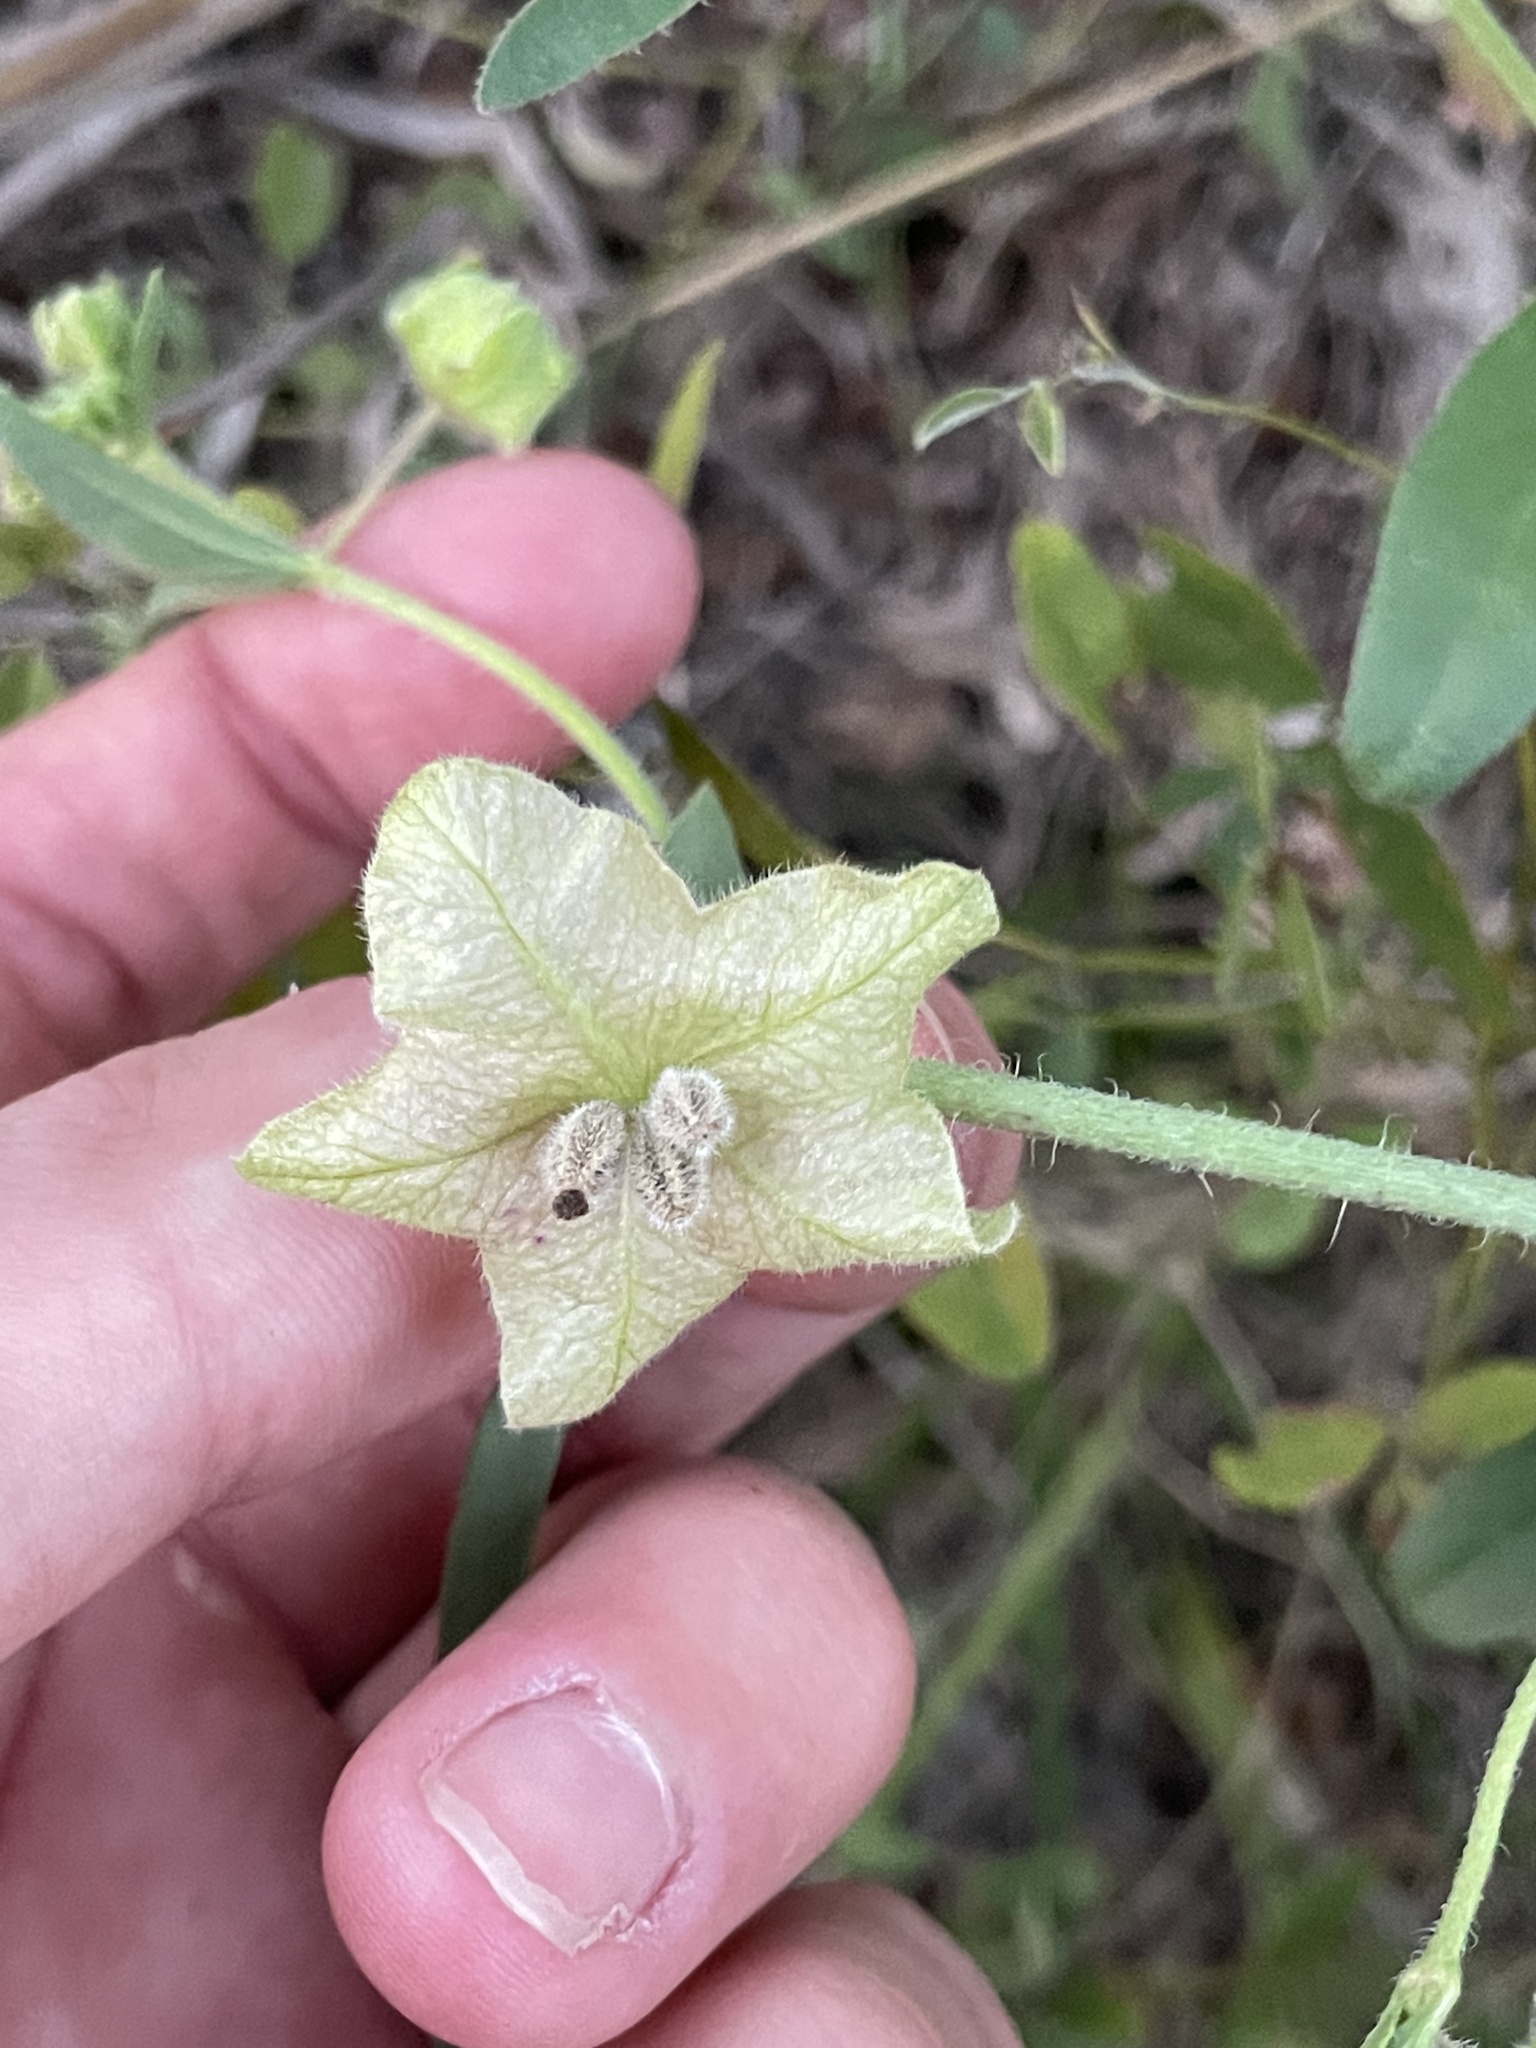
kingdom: Plantae
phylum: Tracheophyta
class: Magnoliopsida
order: Caryophyllales
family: Nyctaginaceae
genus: Mirabilis
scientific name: Mirabilis albida
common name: Hairy four-o'clock
